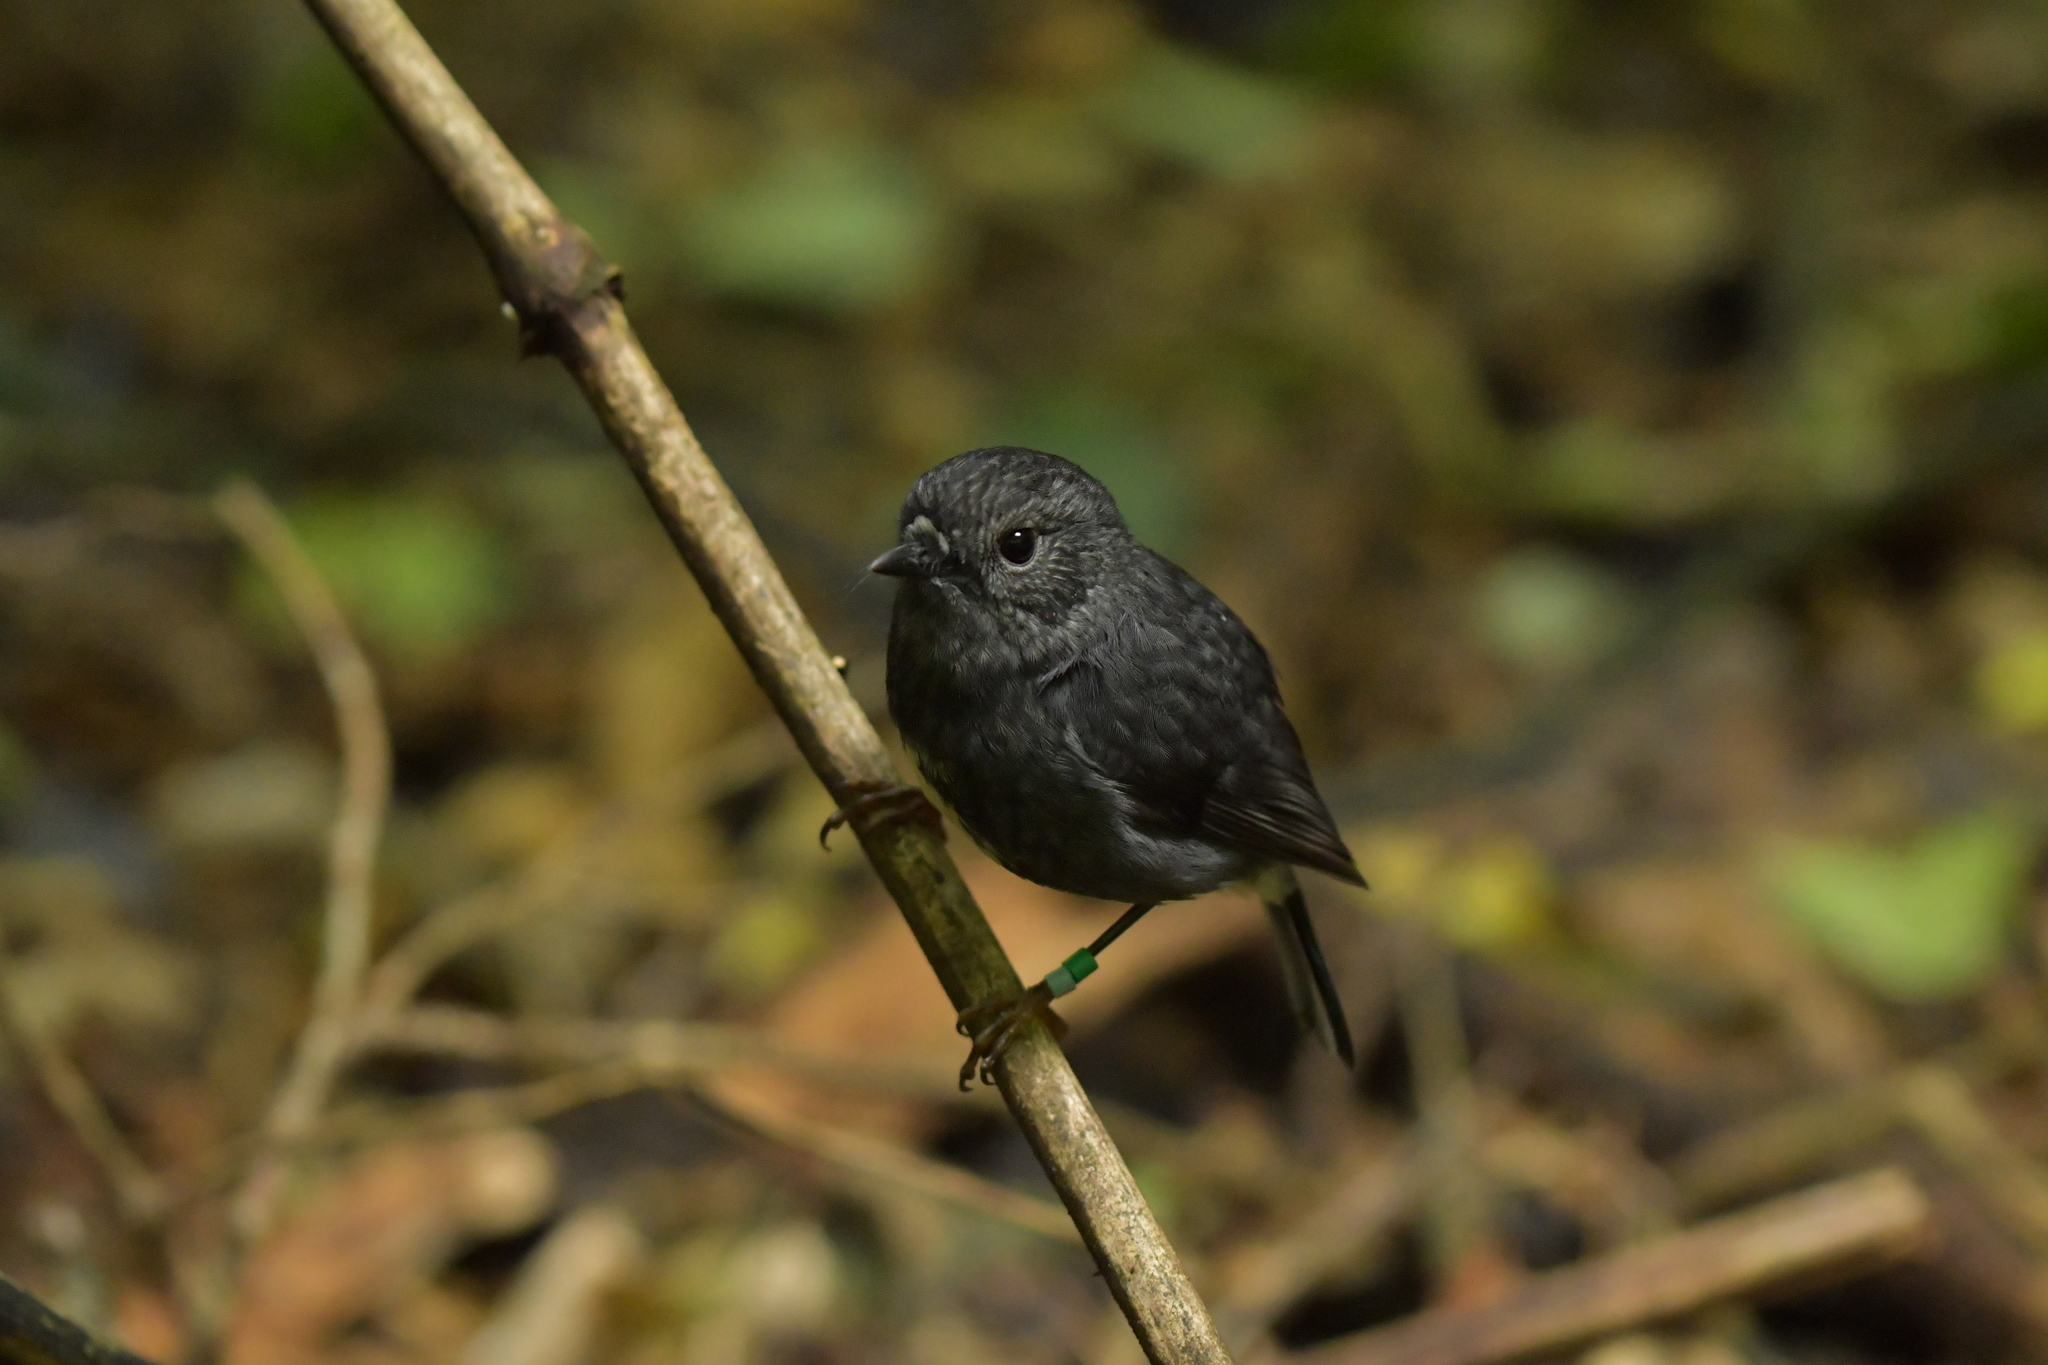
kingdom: Animalia
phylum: Chordata
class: Aves
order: Passeriformes
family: Petroicidae
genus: Petroica
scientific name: Petroica australis
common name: New zealand robin
